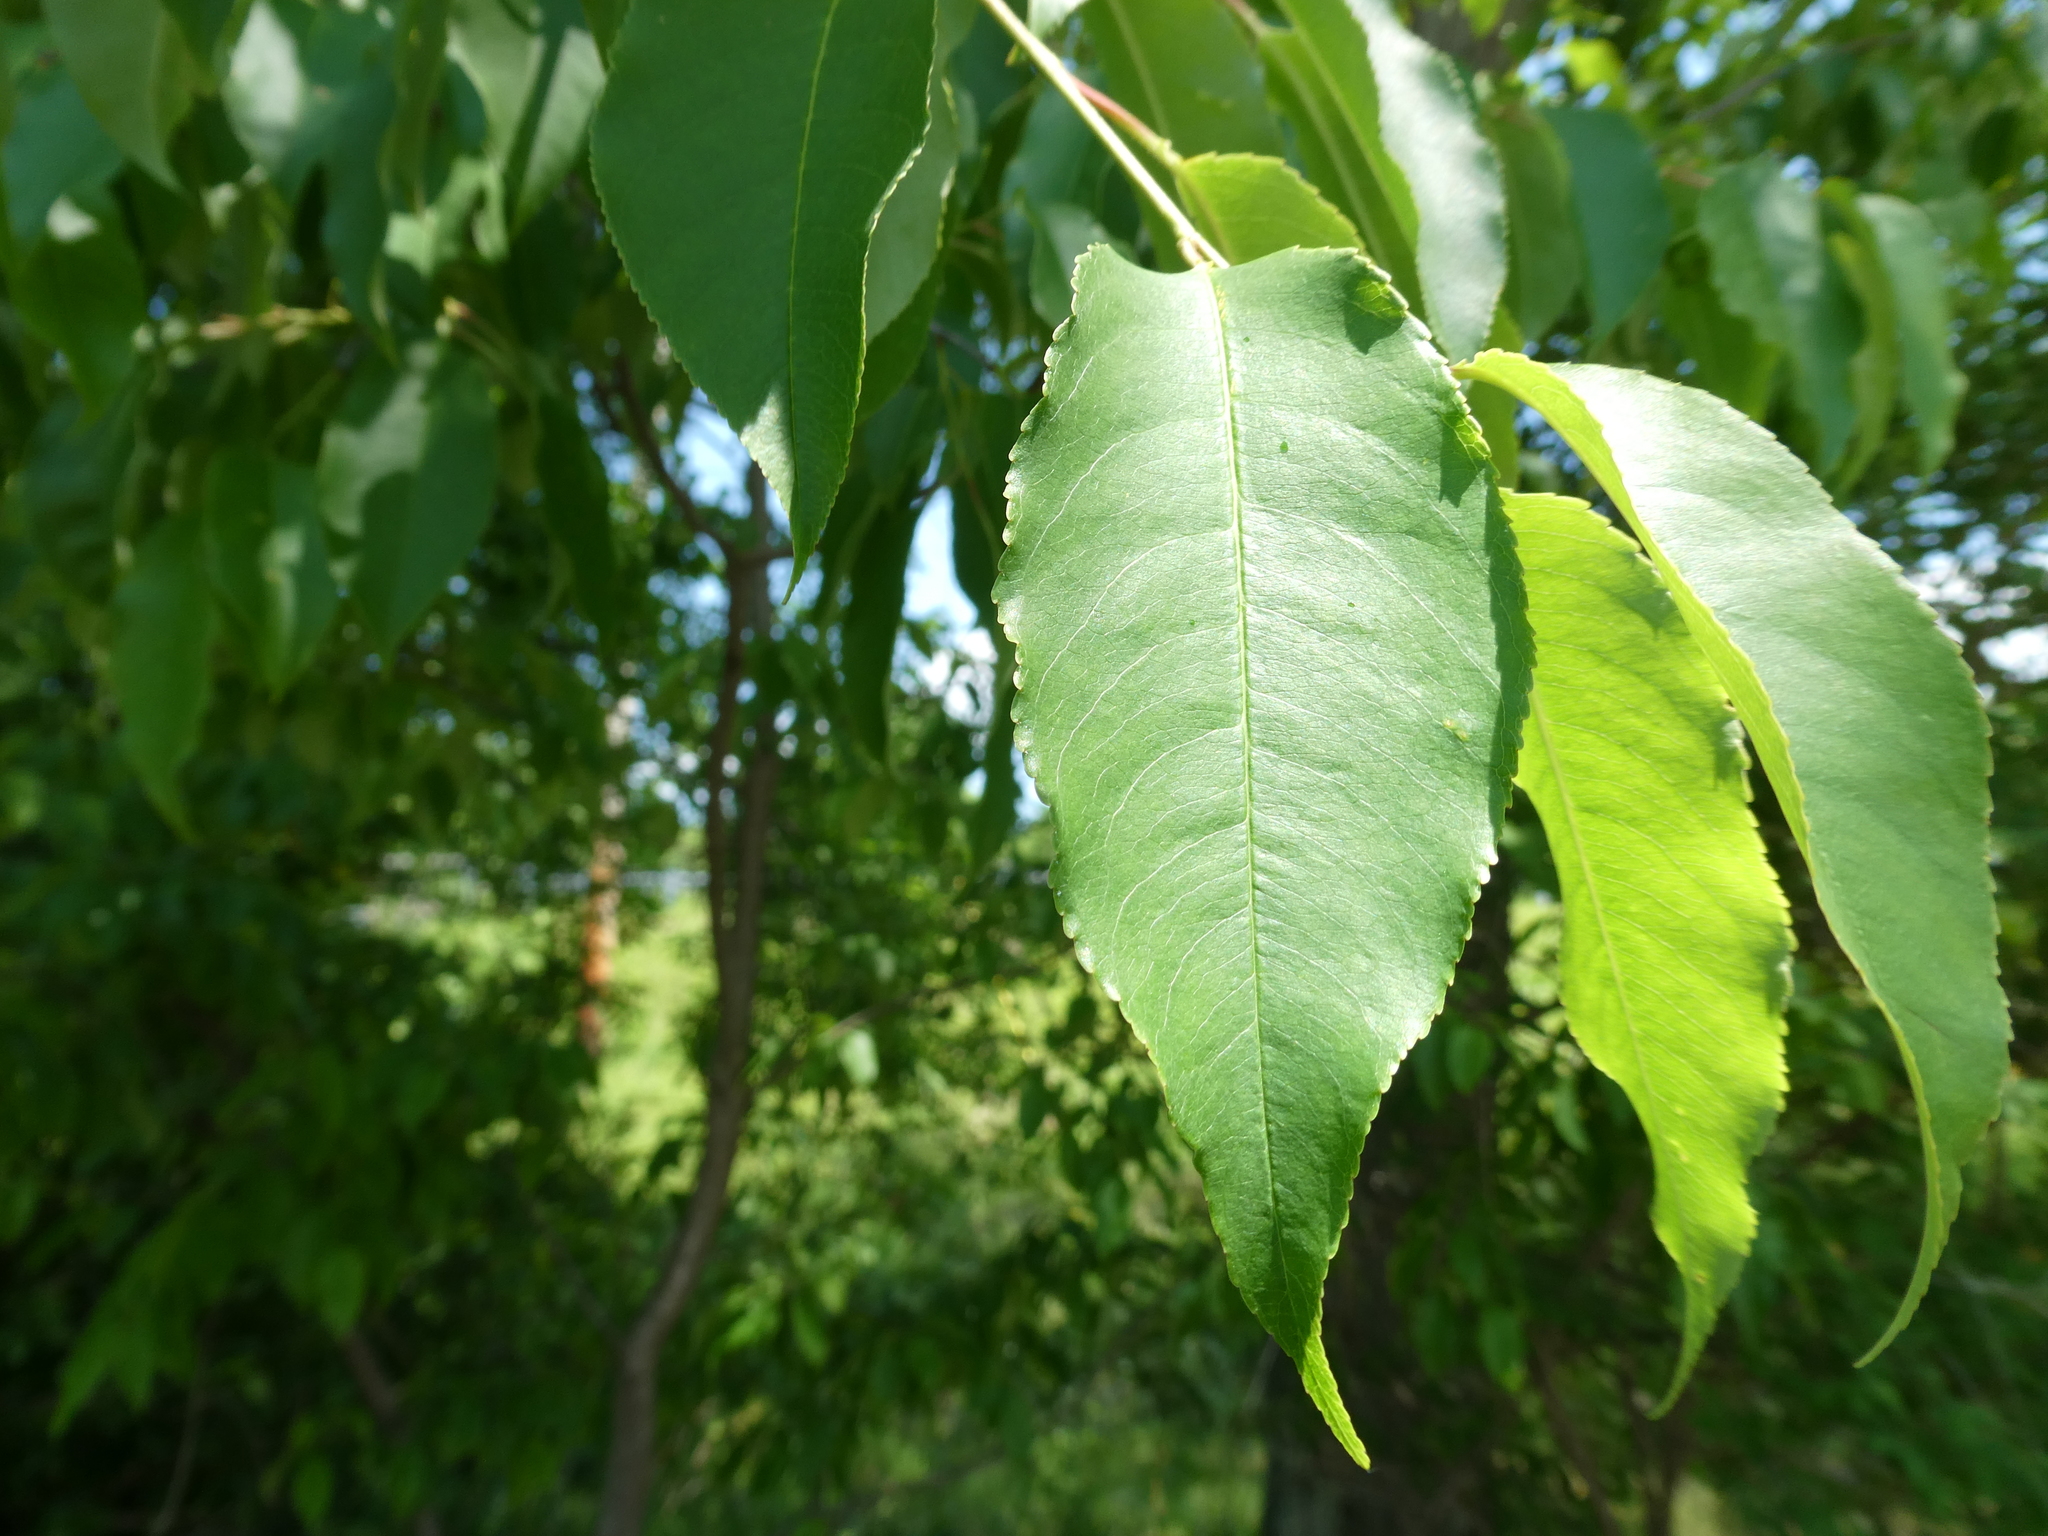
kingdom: Fungi
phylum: Ascomycota
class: Dothideomycetes
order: Venturiales
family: Venturiaceae
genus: Apiosporina
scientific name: Apiosporina morbosa
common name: Black knot
